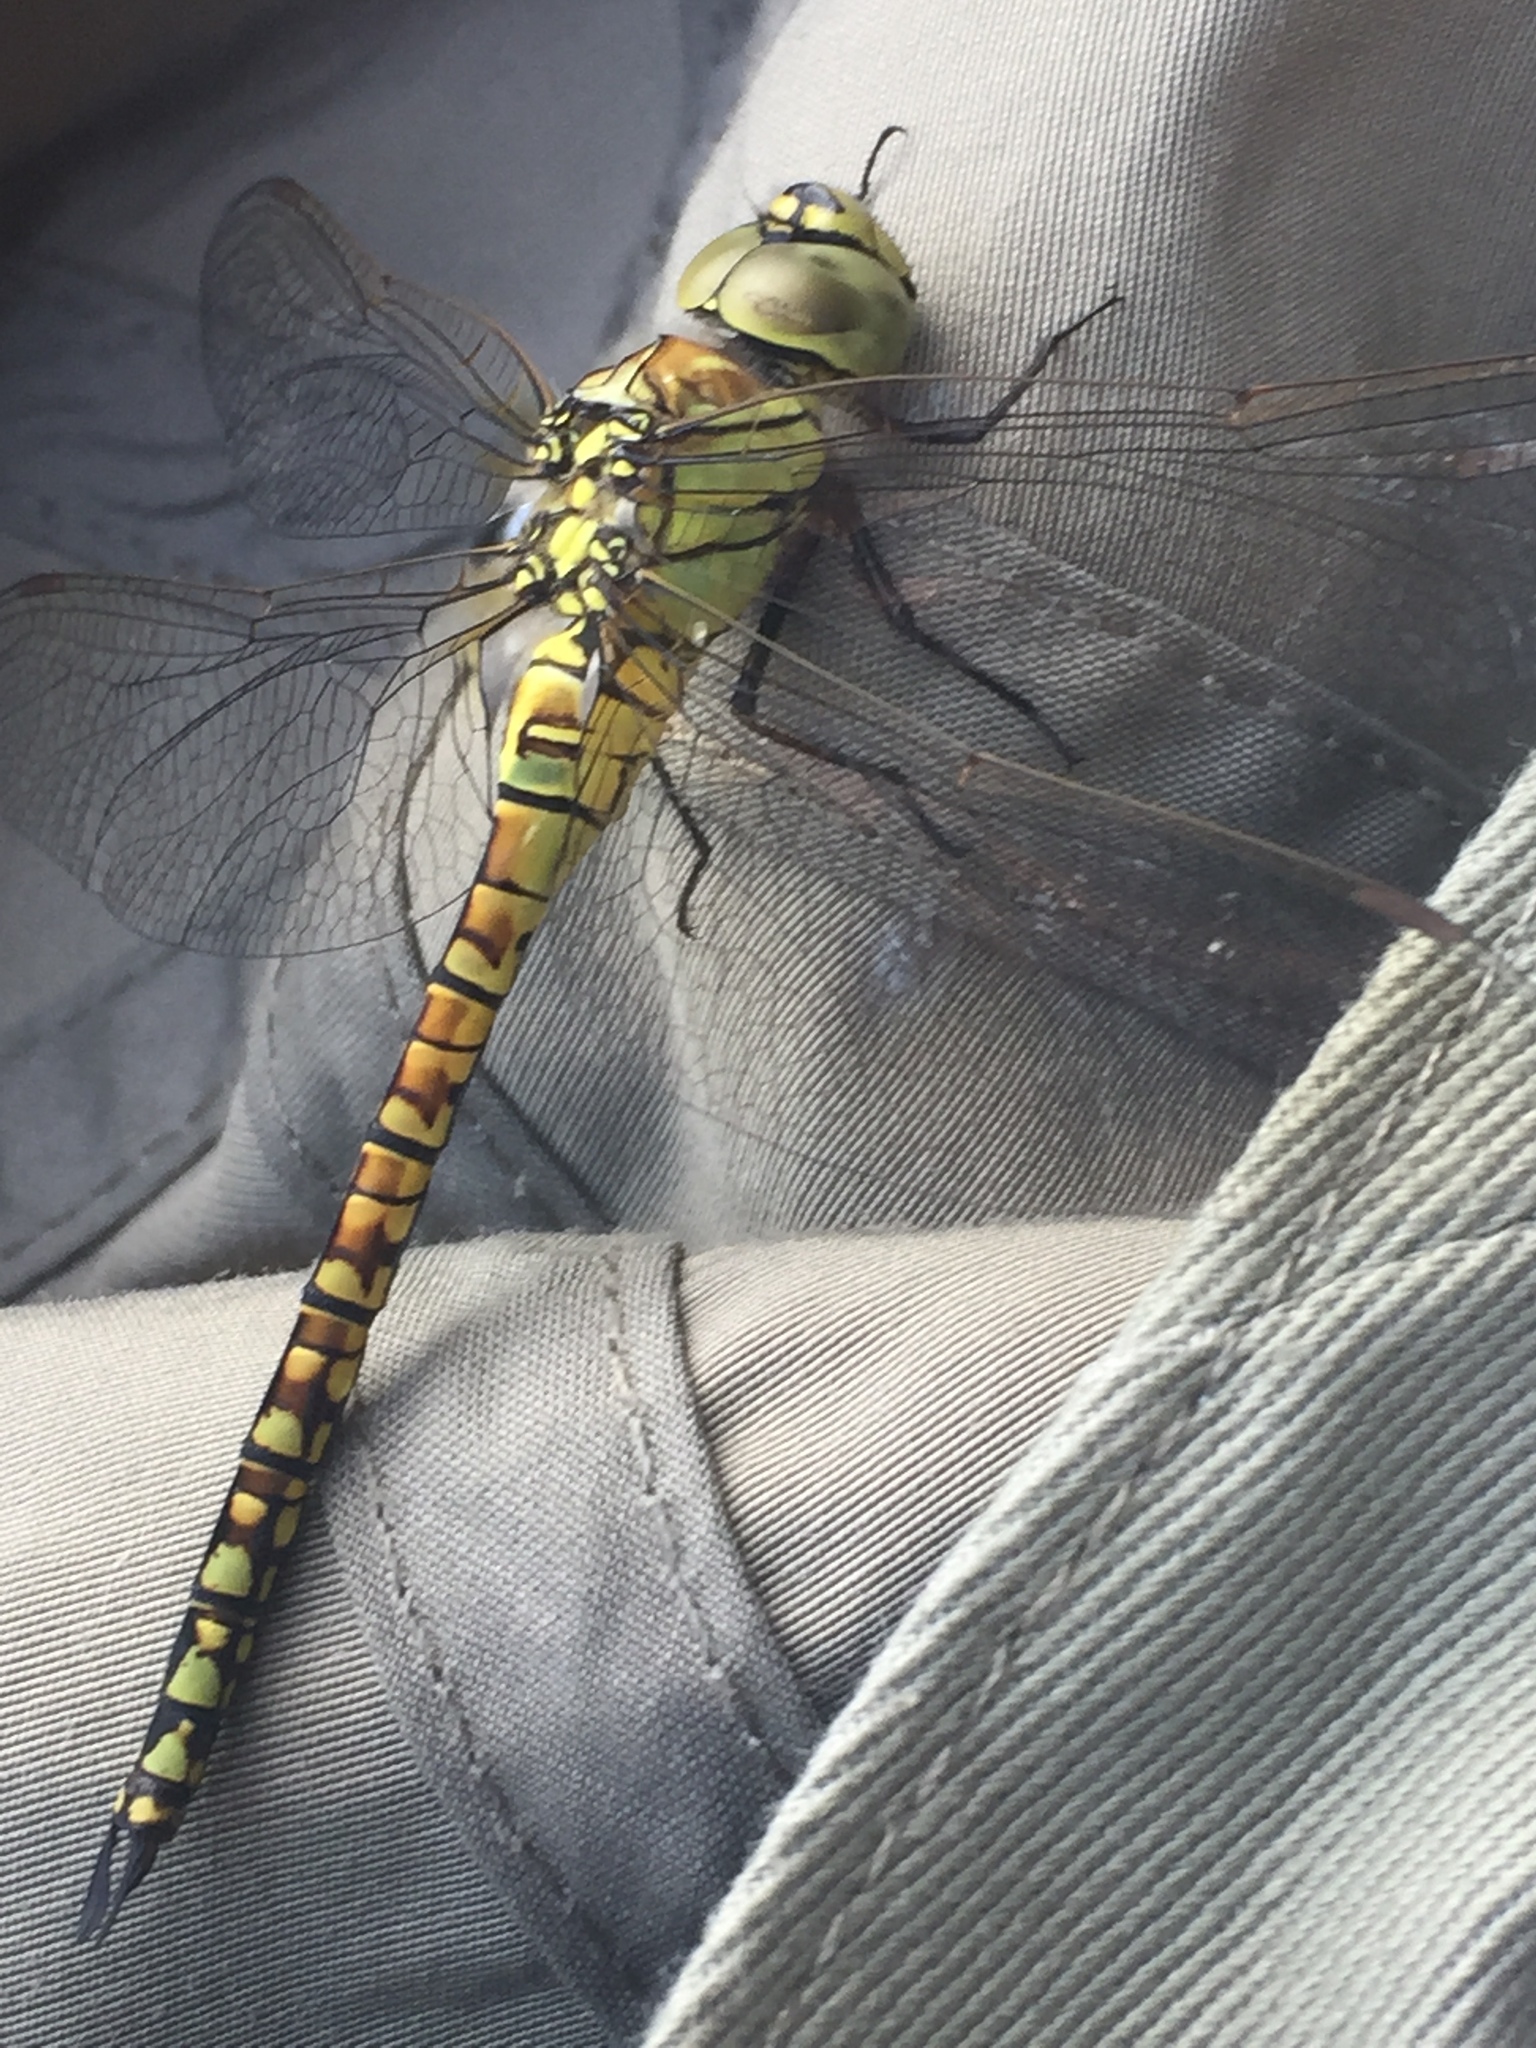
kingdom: Animalia
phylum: Arthropoda
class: Insecta
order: Odonata
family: Aeshnidae
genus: Aeshna
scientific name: Aeshna affinis
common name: Southern migrant hawker
